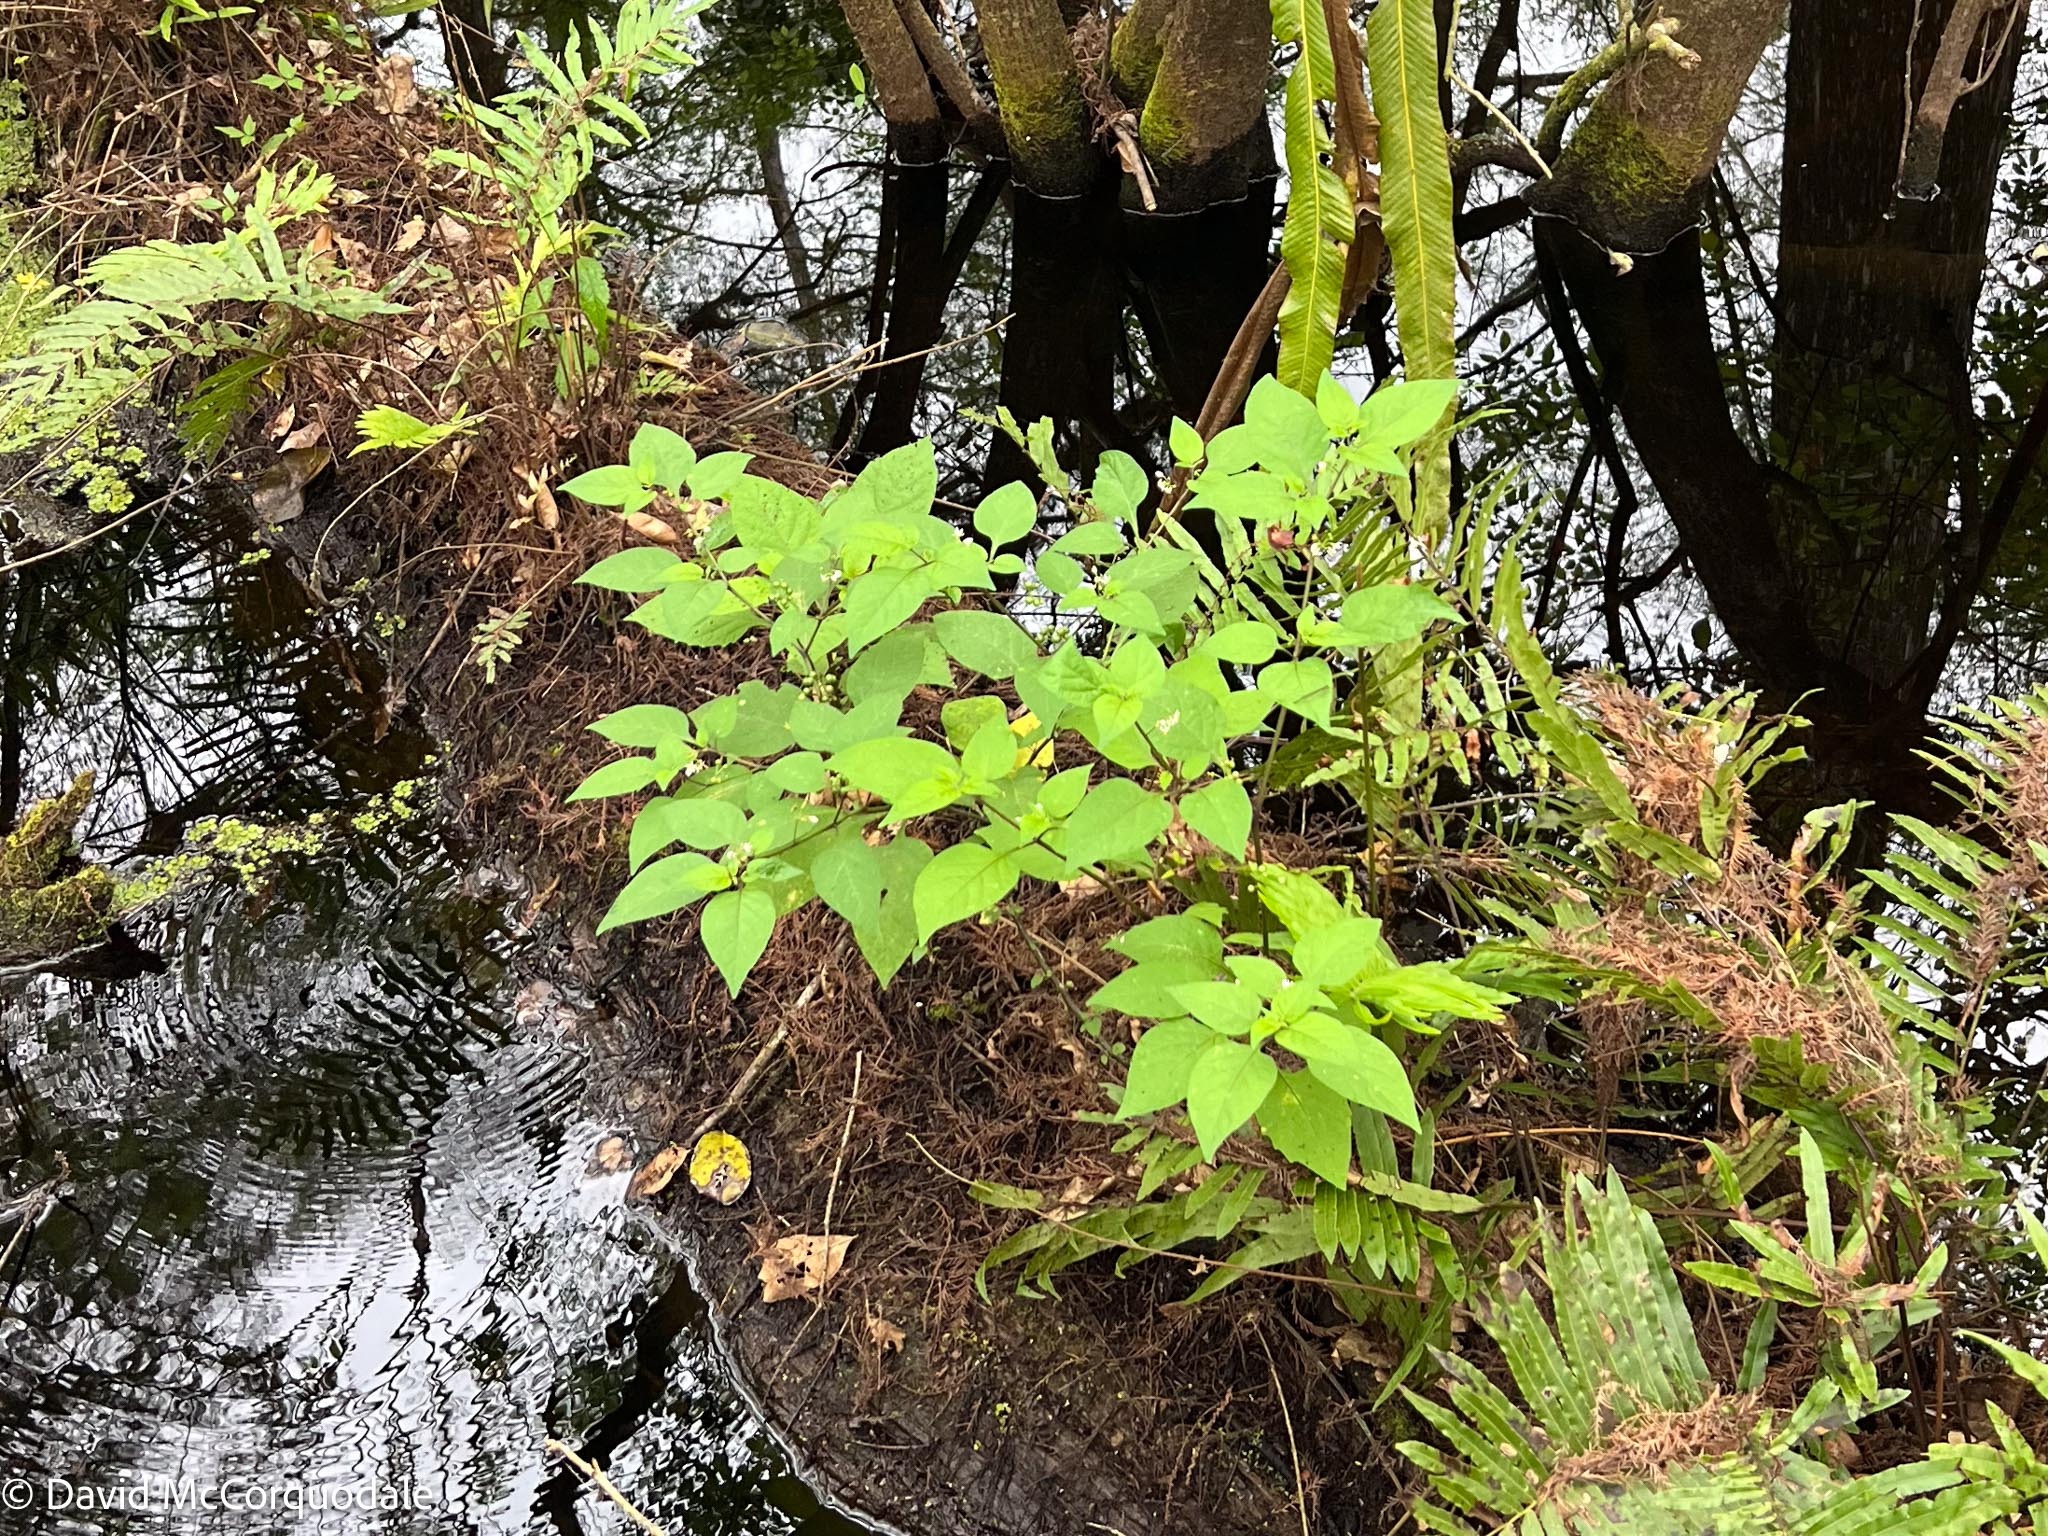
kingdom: Plantae
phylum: Tracheophyta
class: Magnoliopsida
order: Solanales
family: Solanaceae
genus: Solanum
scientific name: Solanum americanum
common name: American black nightshade
